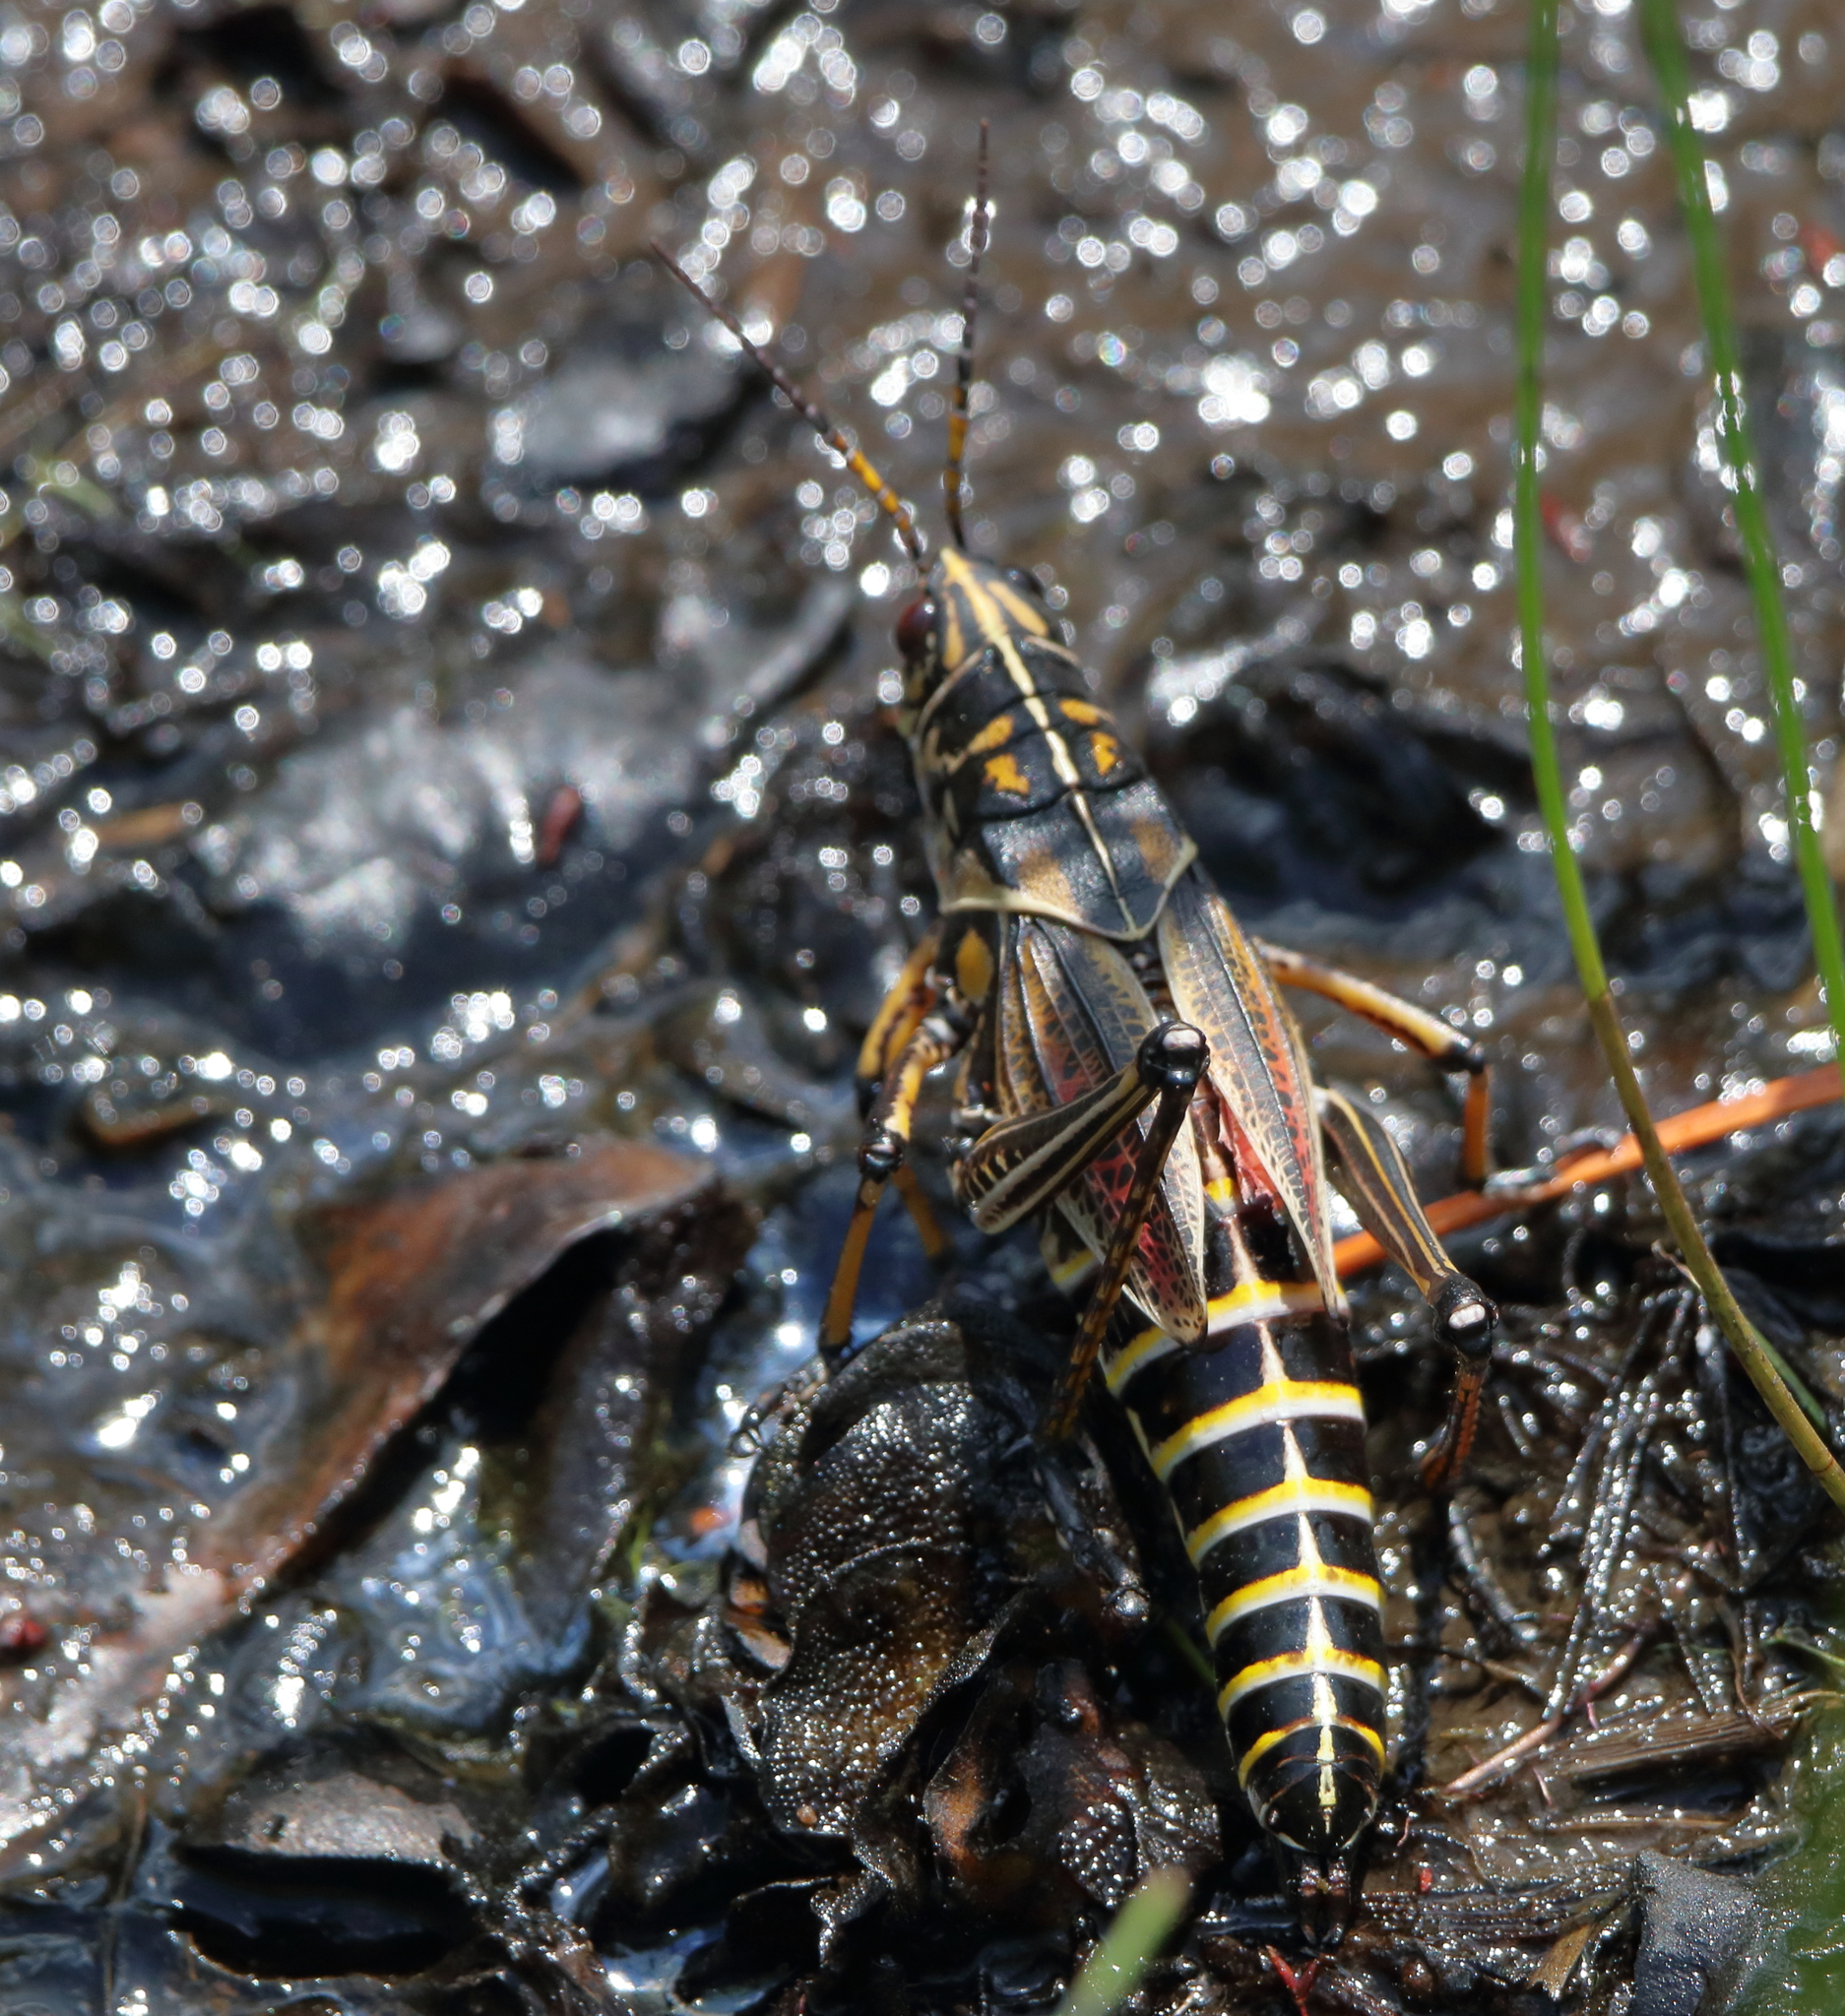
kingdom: Animalia
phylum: Arthropoda
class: Insecta
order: Orthoptera
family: Romaleidae
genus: Romalea
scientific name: Romalea microptera
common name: Eastern lubber grasshopper
